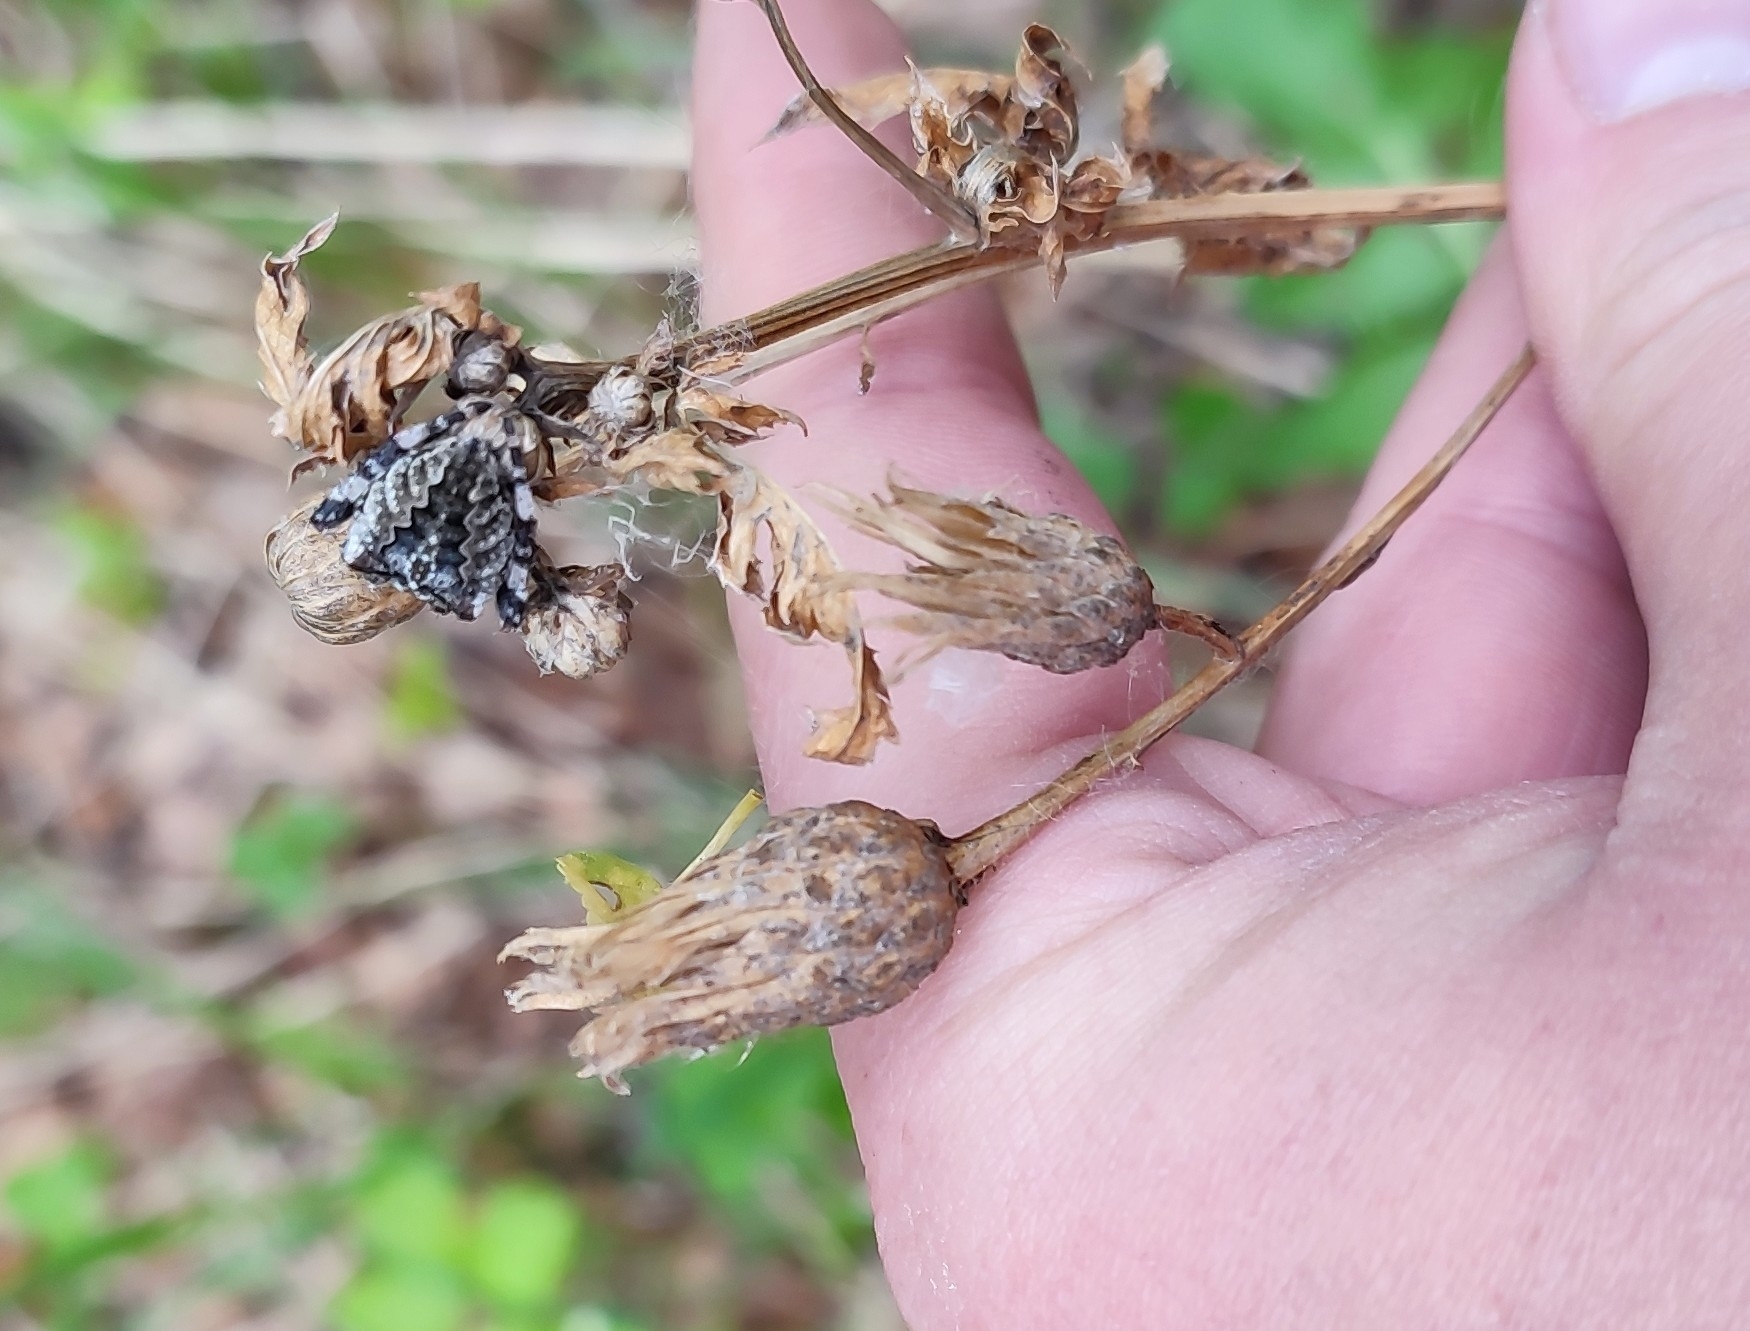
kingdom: Plantae
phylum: Tracheophyta
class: Magnoliopsida
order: Asterales
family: Asteraceae
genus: Serratula
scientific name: Serratula coronata
